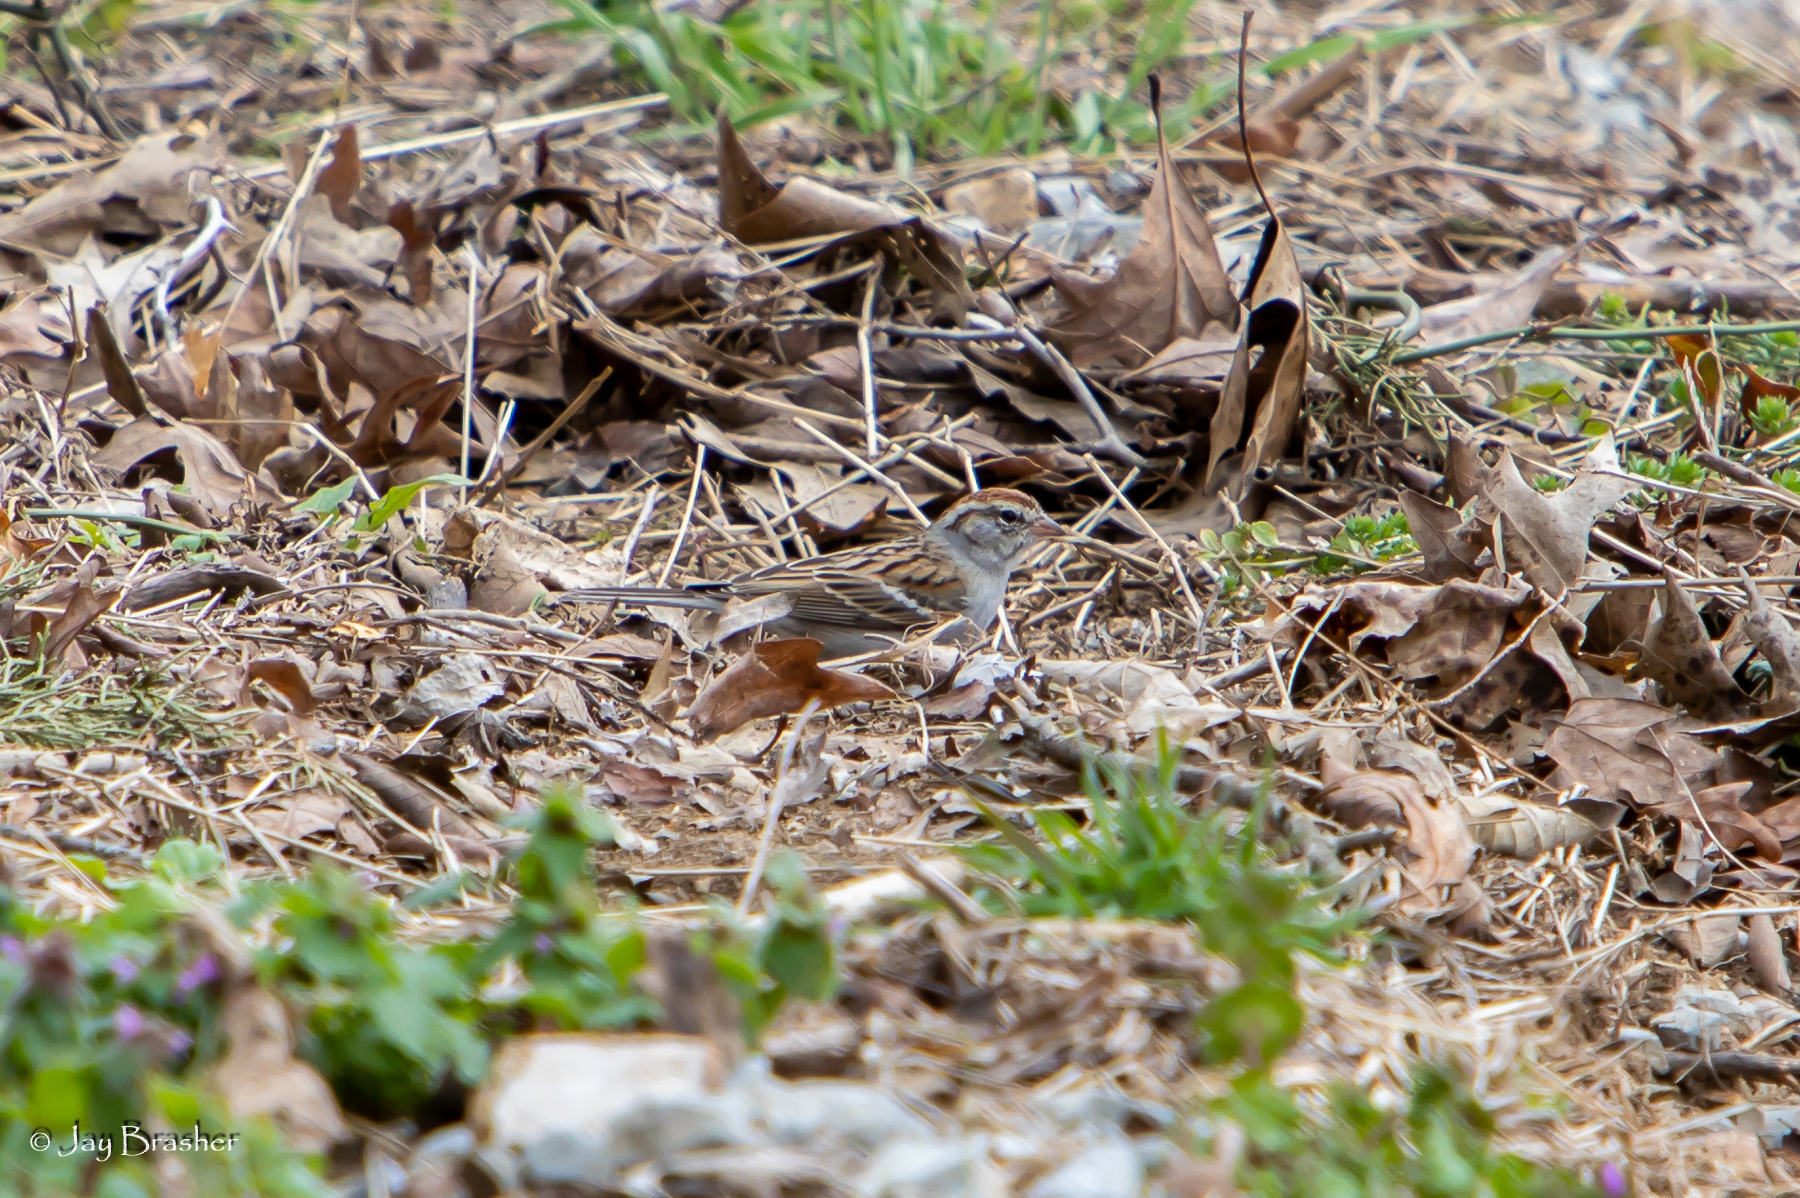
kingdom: Animalia
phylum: Chordata
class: Aves
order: Passeriformes
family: Passerellidae
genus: Spizella
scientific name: Spizella passerina
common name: Chipping sparrow
